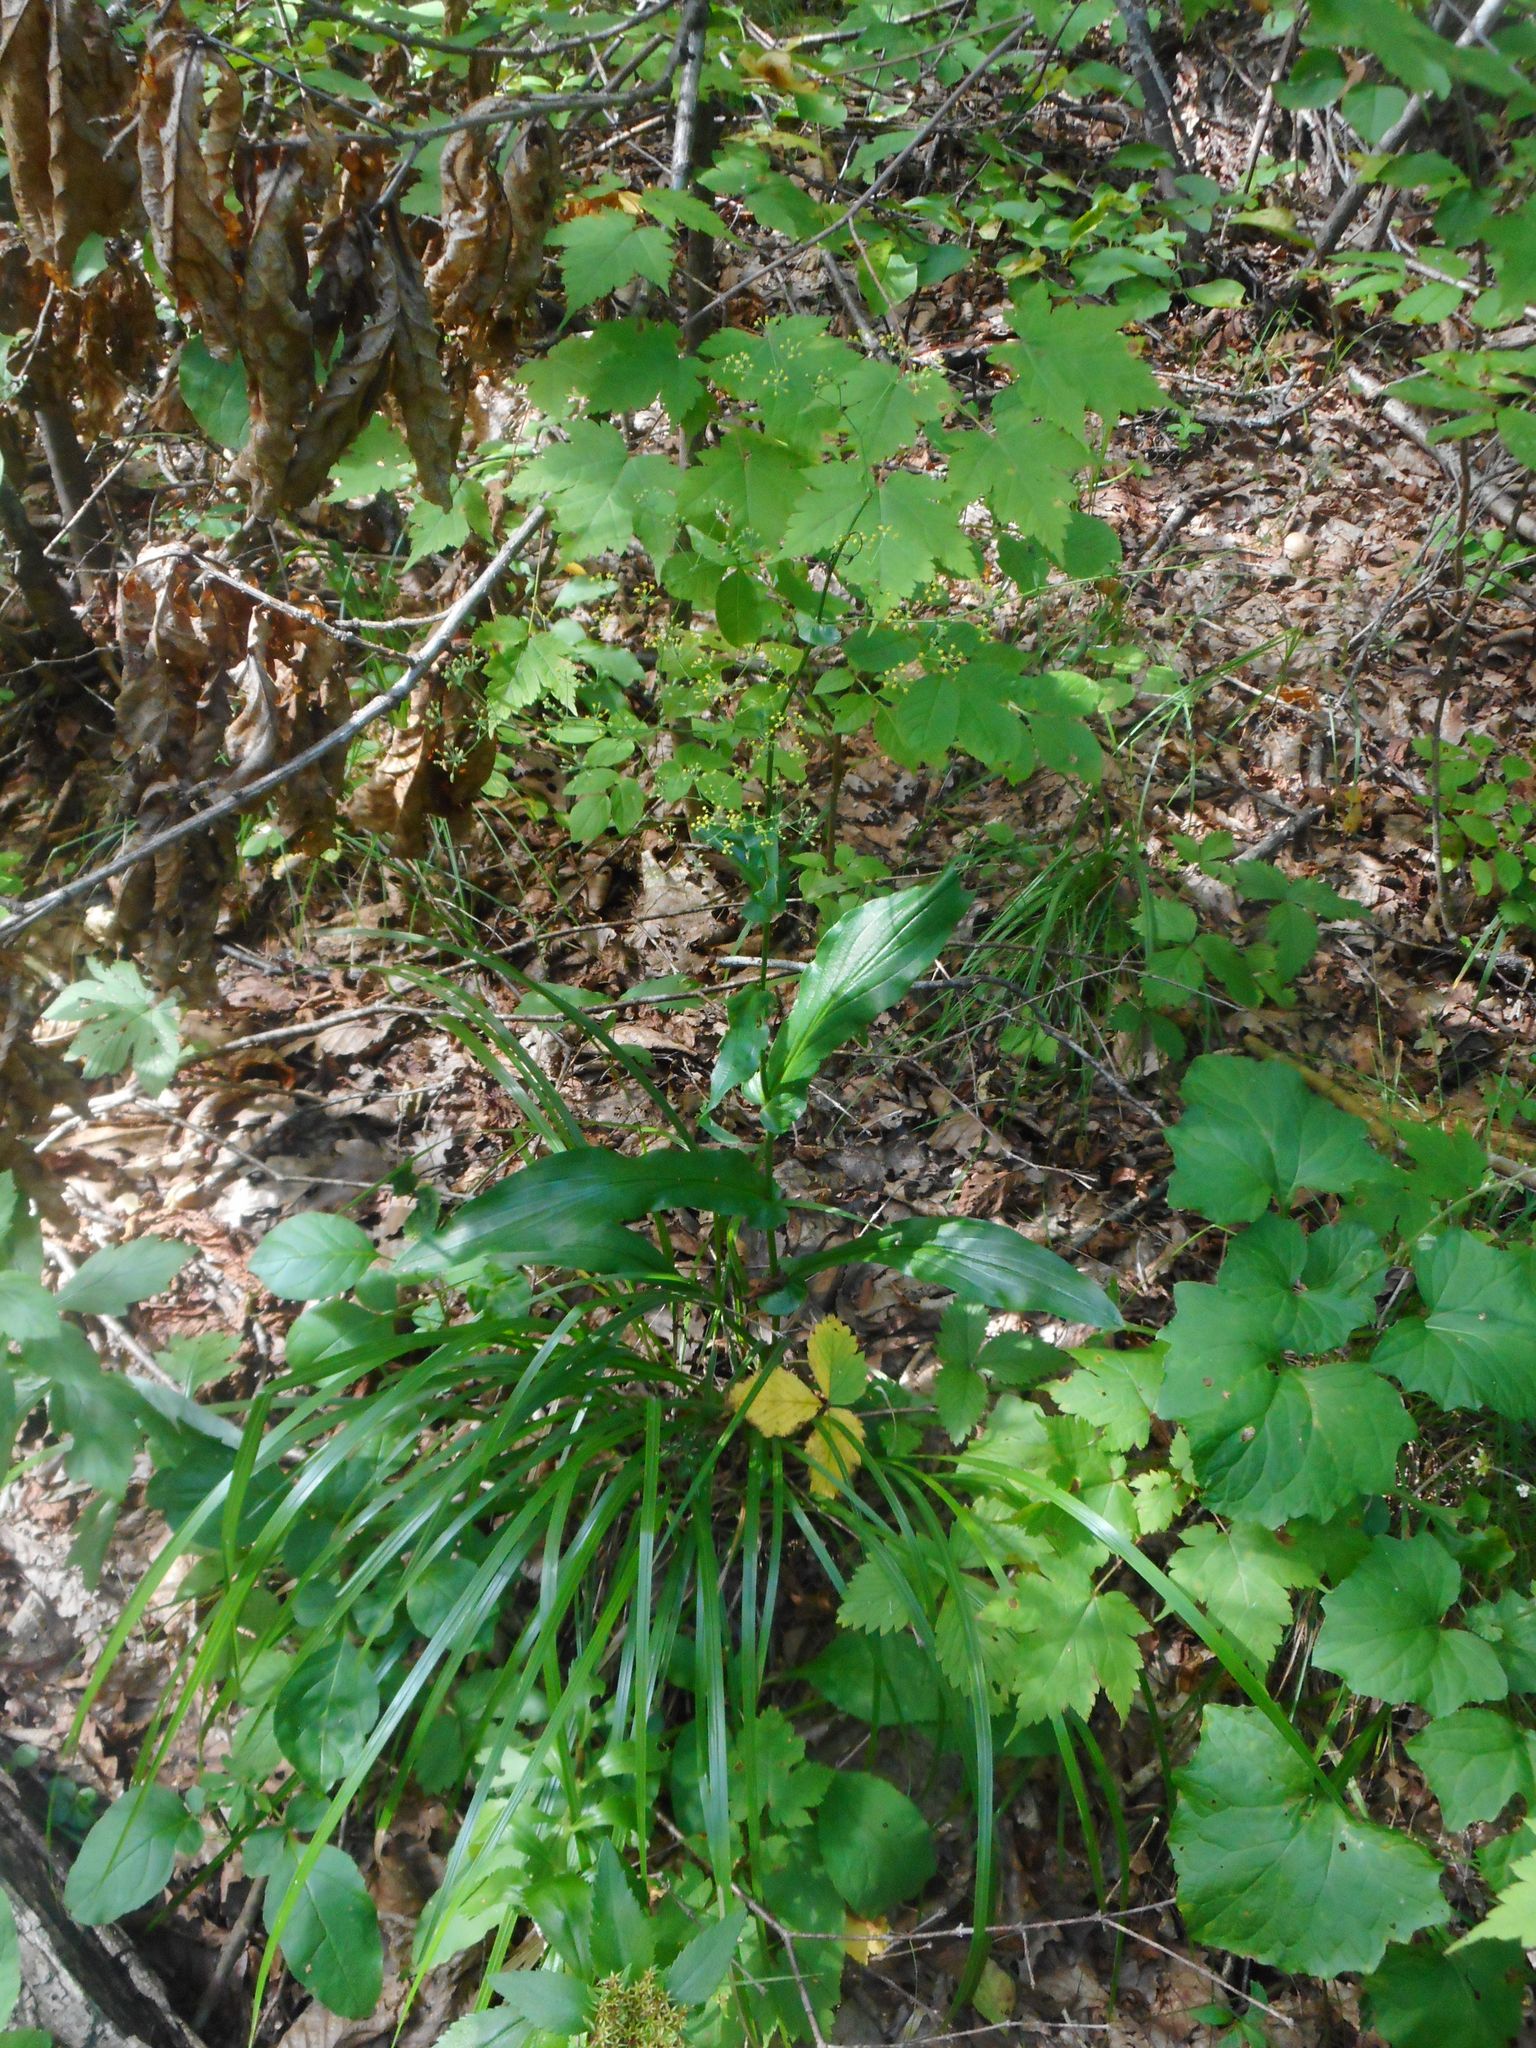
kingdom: Plantae
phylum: Tracheophyta
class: Magnoliopsida
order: Apiales
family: Apiaceae
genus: Bupleurum
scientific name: Bupleurum longiradiatum
